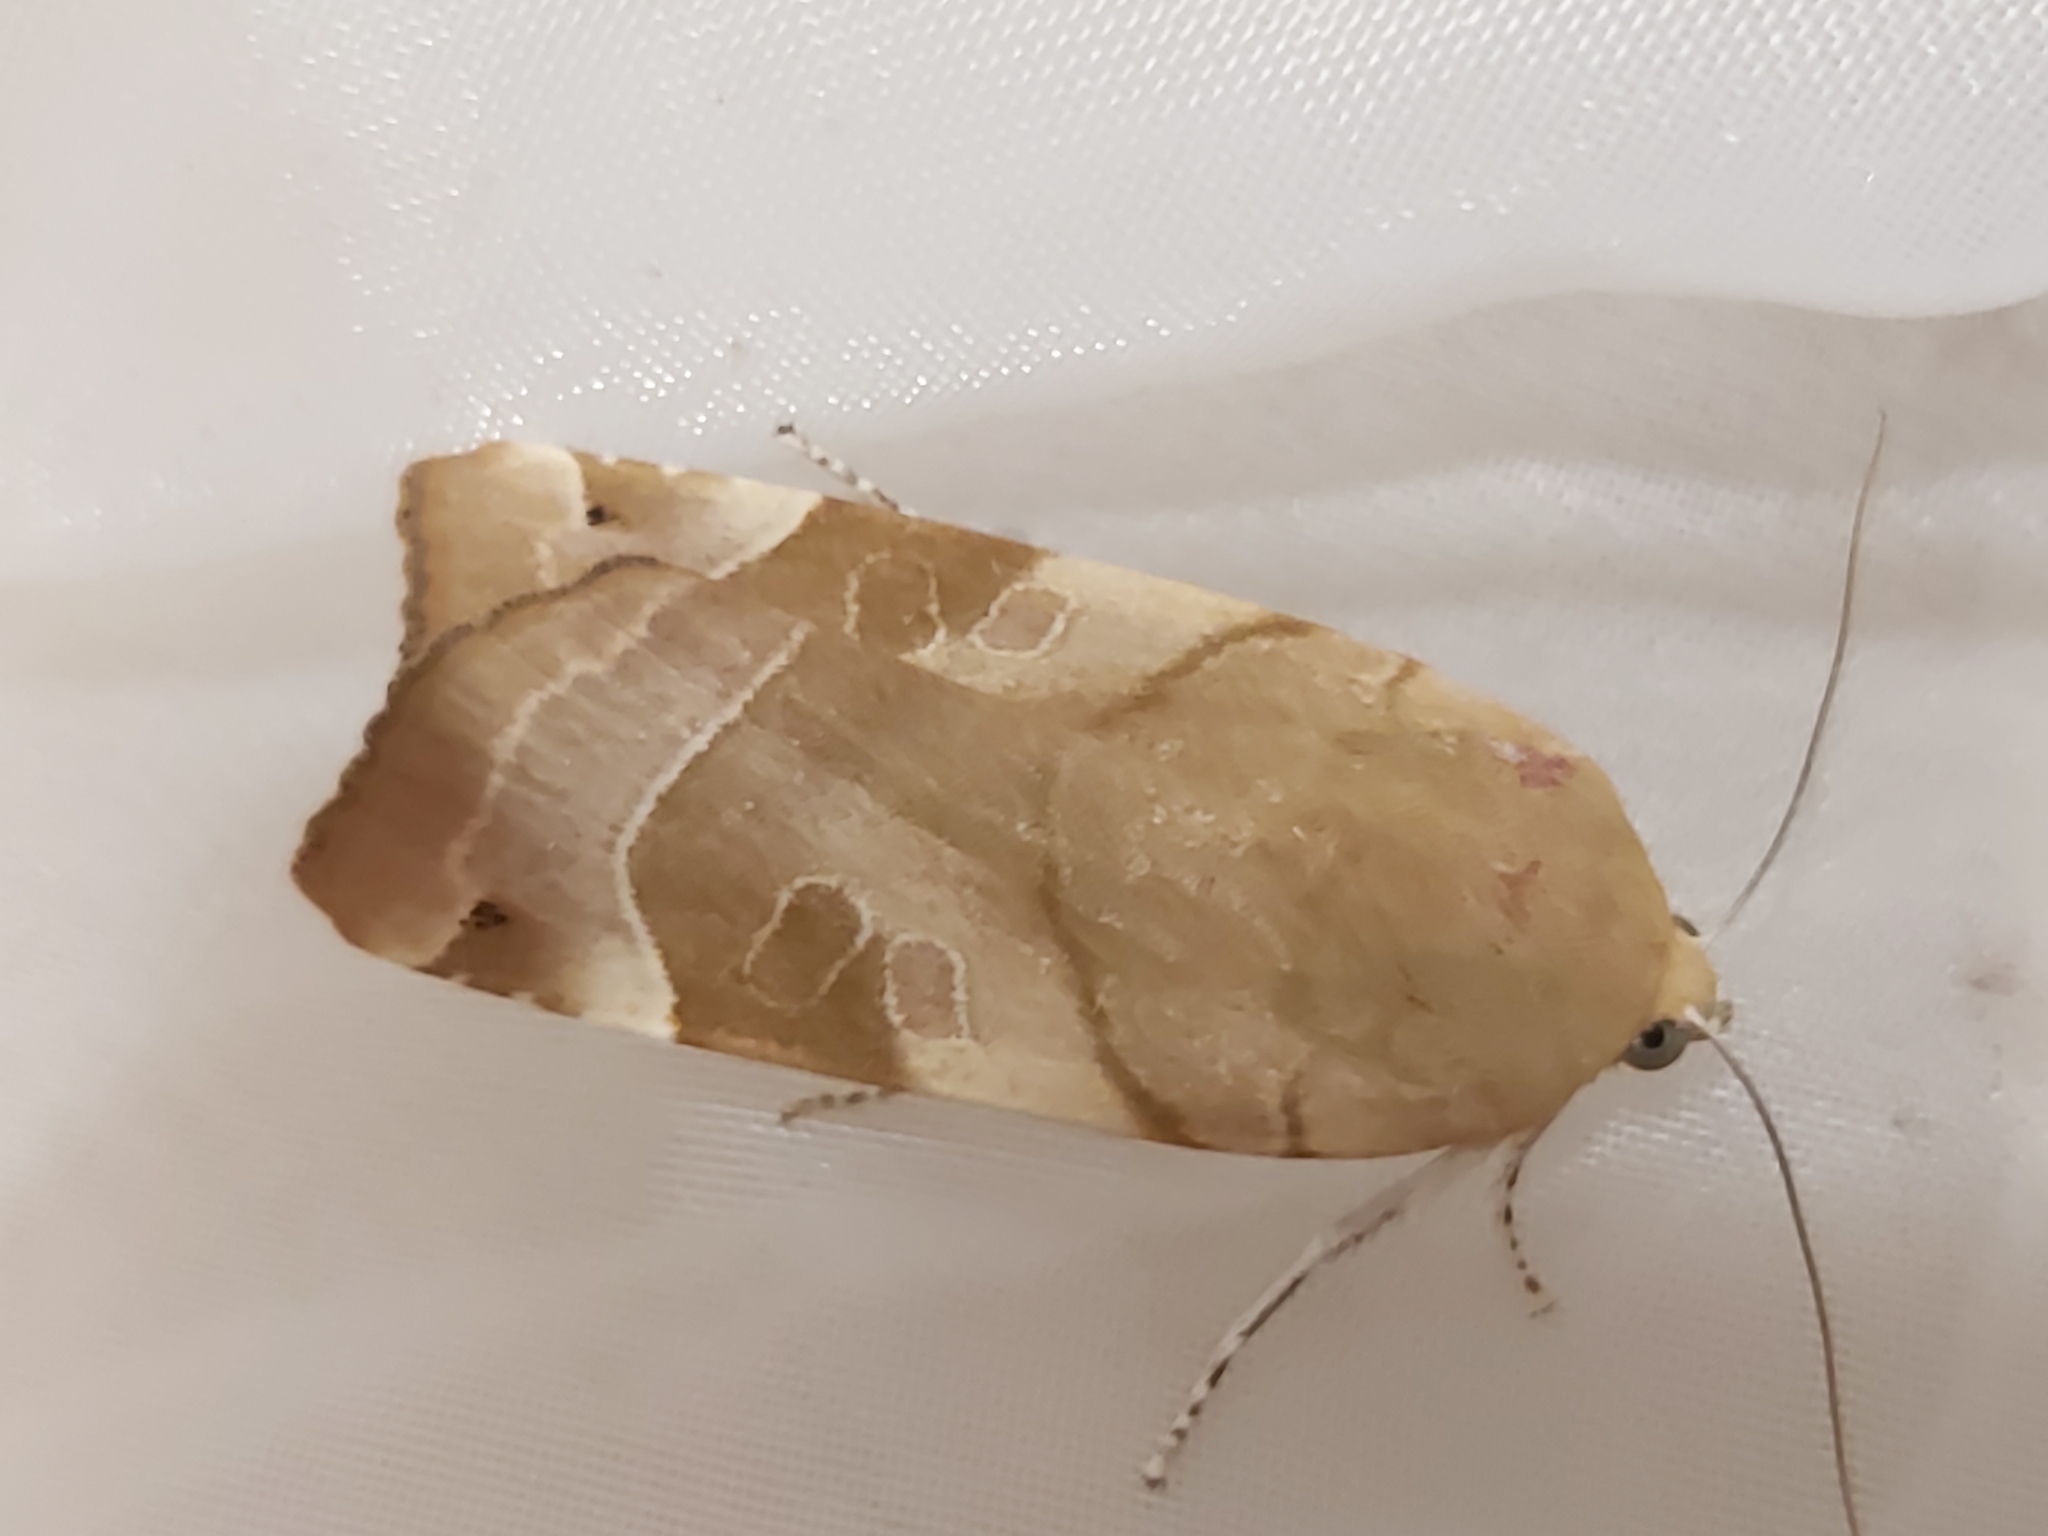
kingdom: Animalia
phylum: Arthropoda
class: Insecta
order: Lepidoptera
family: Noctuidae
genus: Noctua
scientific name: Noctua fimbriata
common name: Broad-bordered yellow underwing
